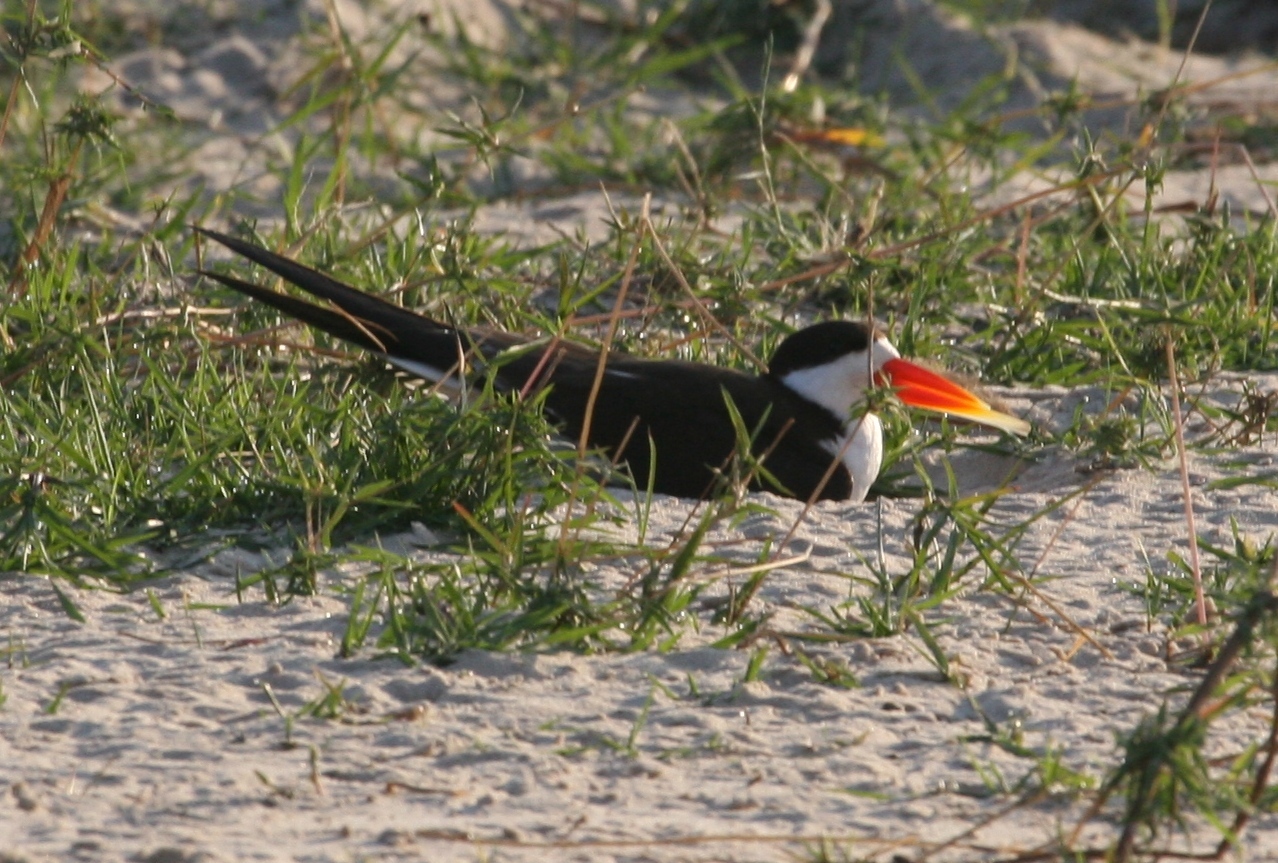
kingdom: Animalia
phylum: Chordata
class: Aves
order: Charadriiformes
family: Laridae
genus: Rynchops
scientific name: Rynchops flavirostris
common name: African skimmer
